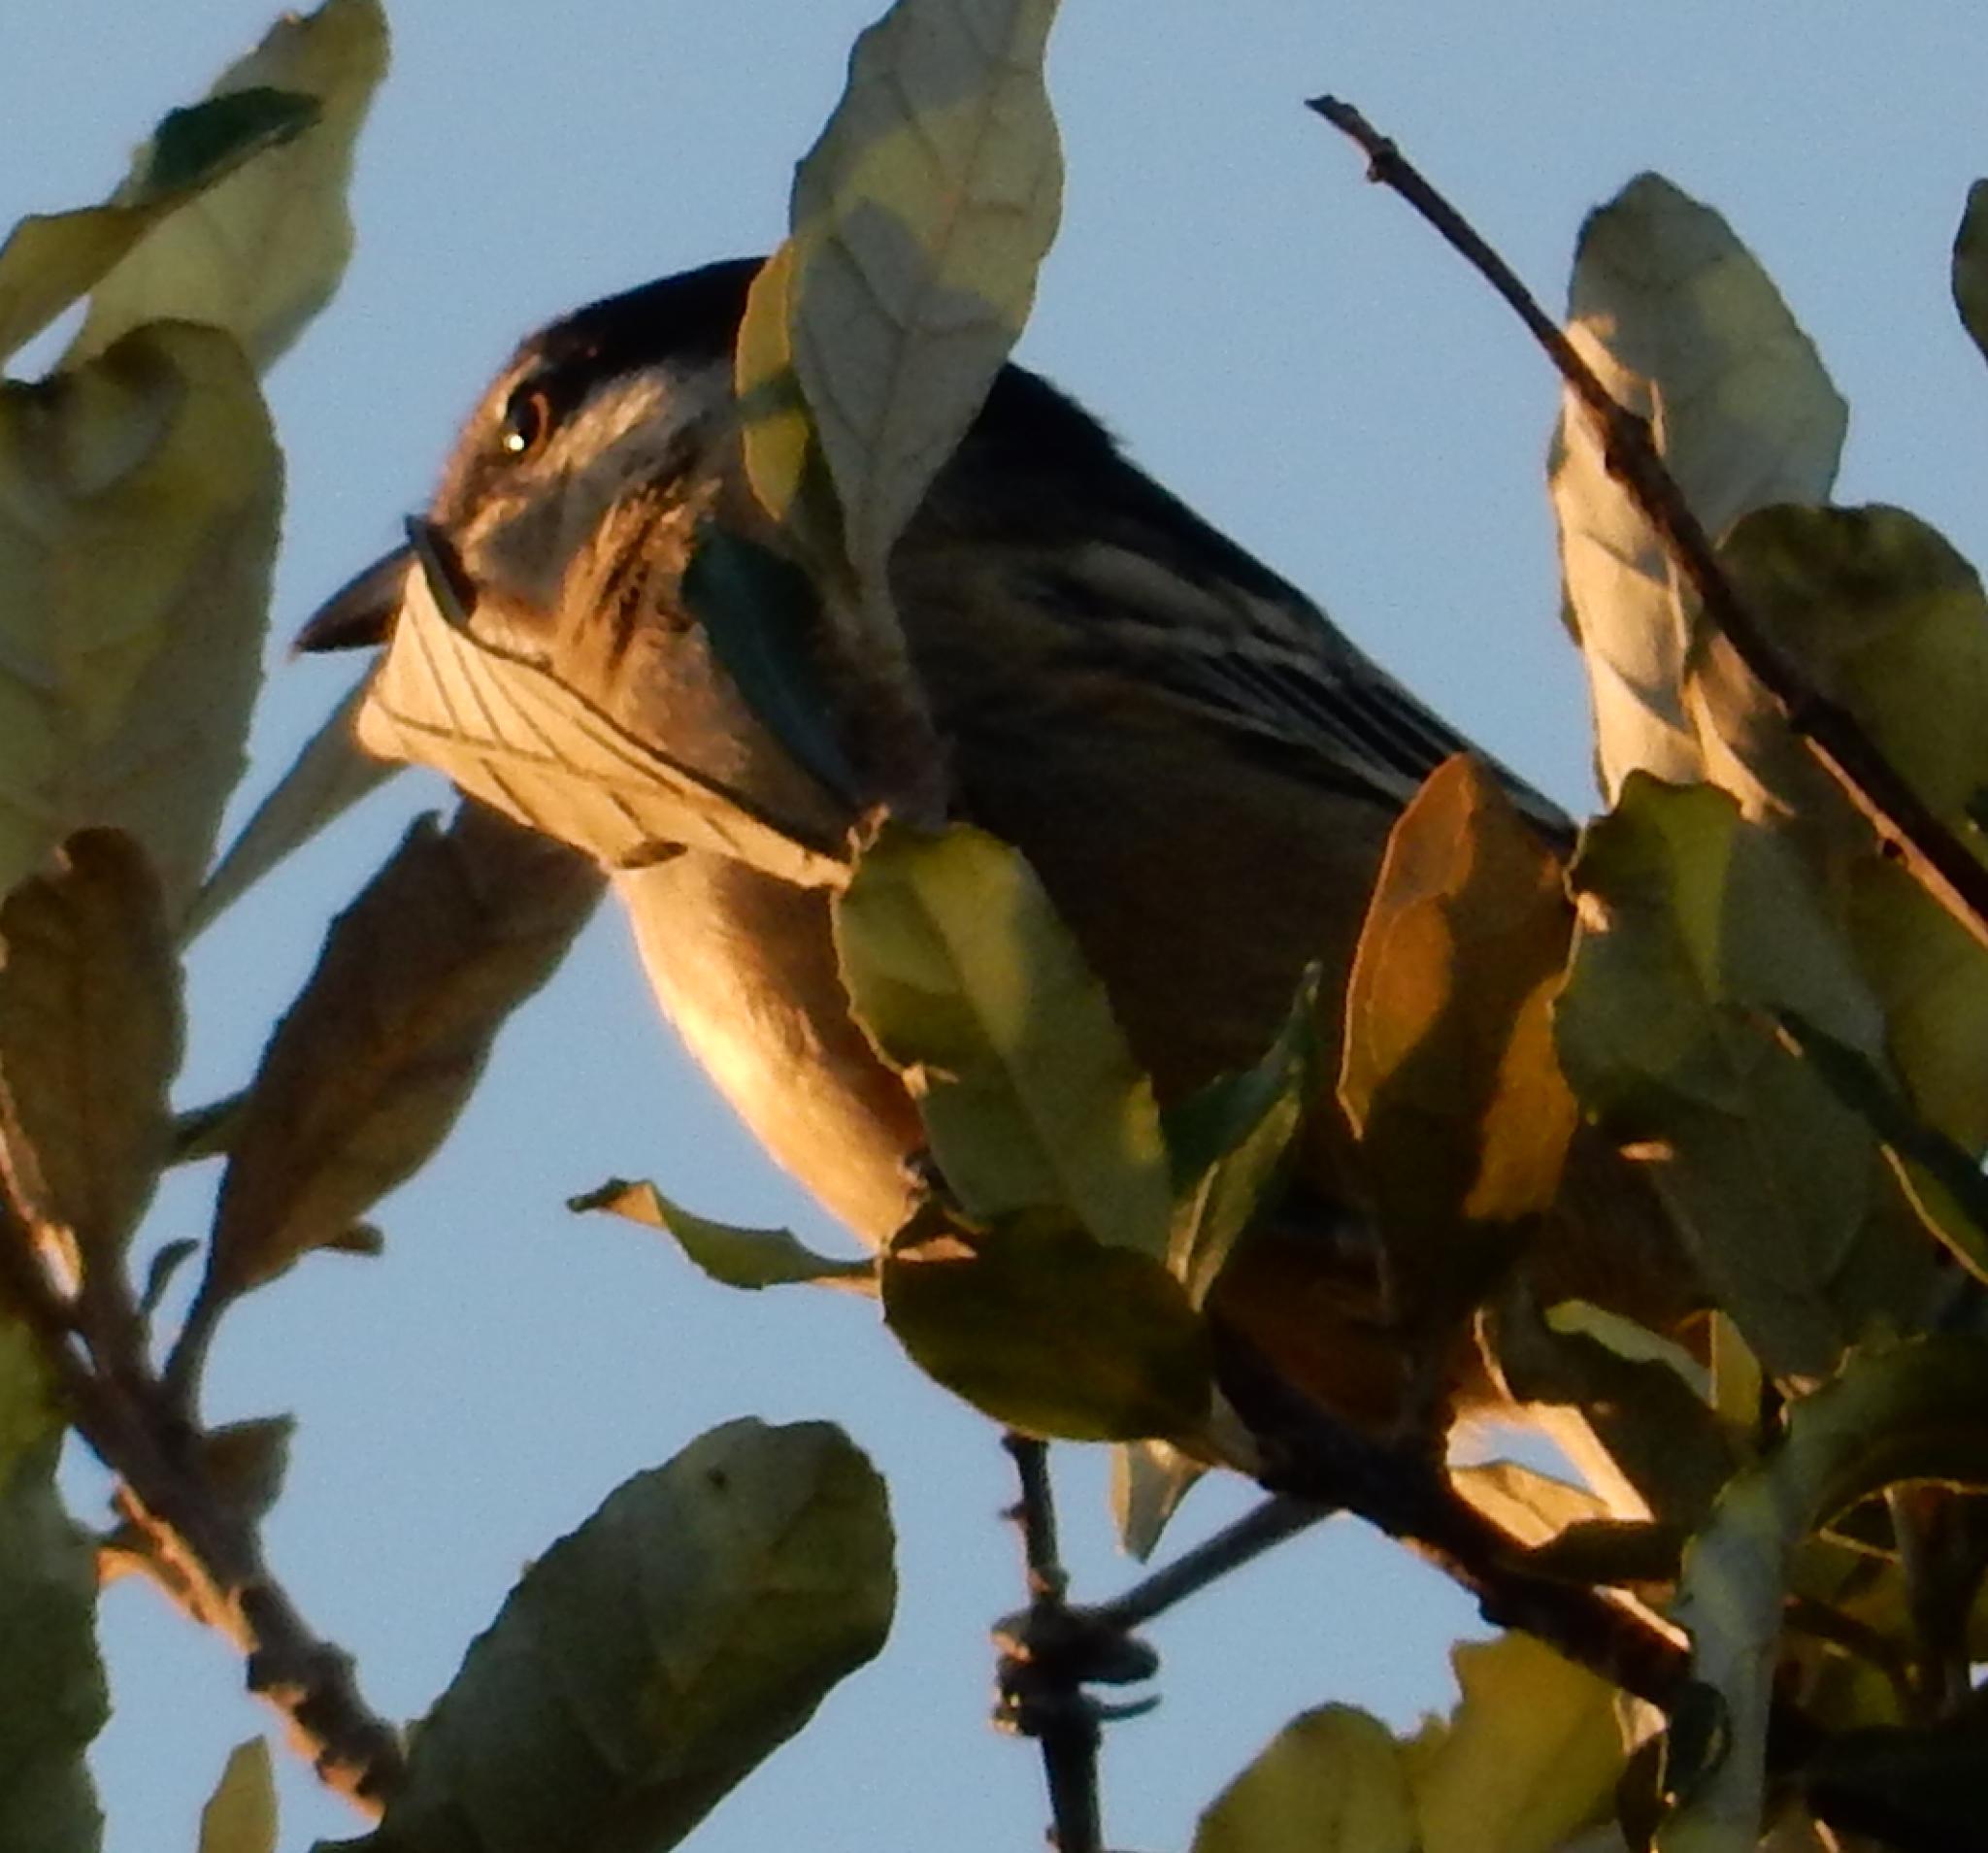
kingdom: Animalia
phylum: Chordata
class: Aves
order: Passeriformes
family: Malaconotidae
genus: Dryoscopus
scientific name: Dryoscopus cubla
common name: Black-backed puffback
